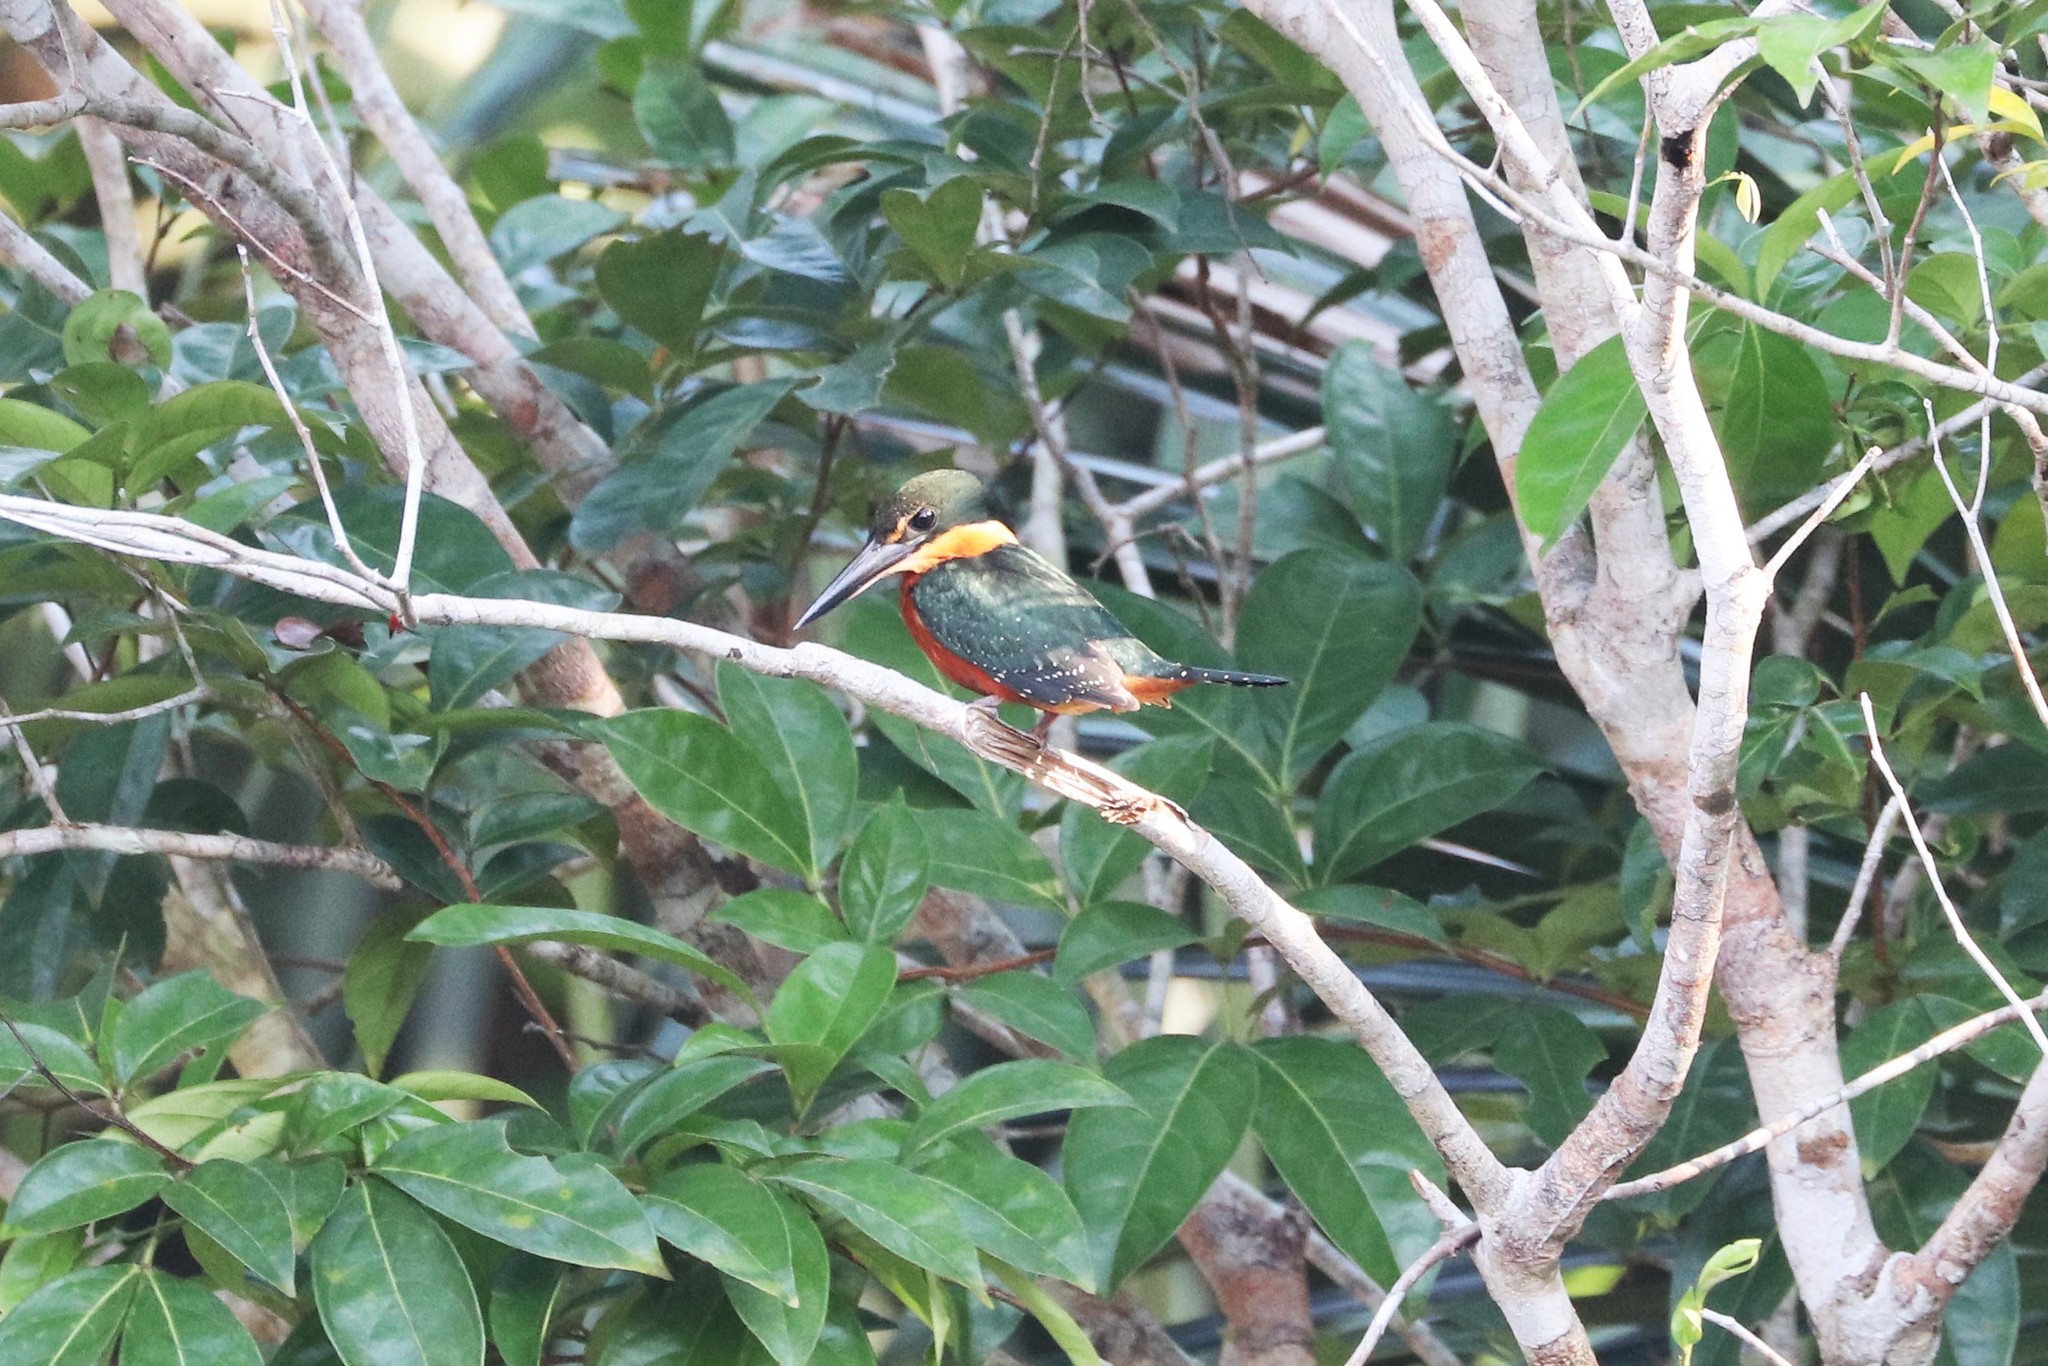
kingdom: Animalia
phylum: Chordata
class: Aves
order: Coraciiformes
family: Alcedinidae
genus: Chloroceryle
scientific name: Chloroceryle inda
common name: Green-and-rufous kingfisher
